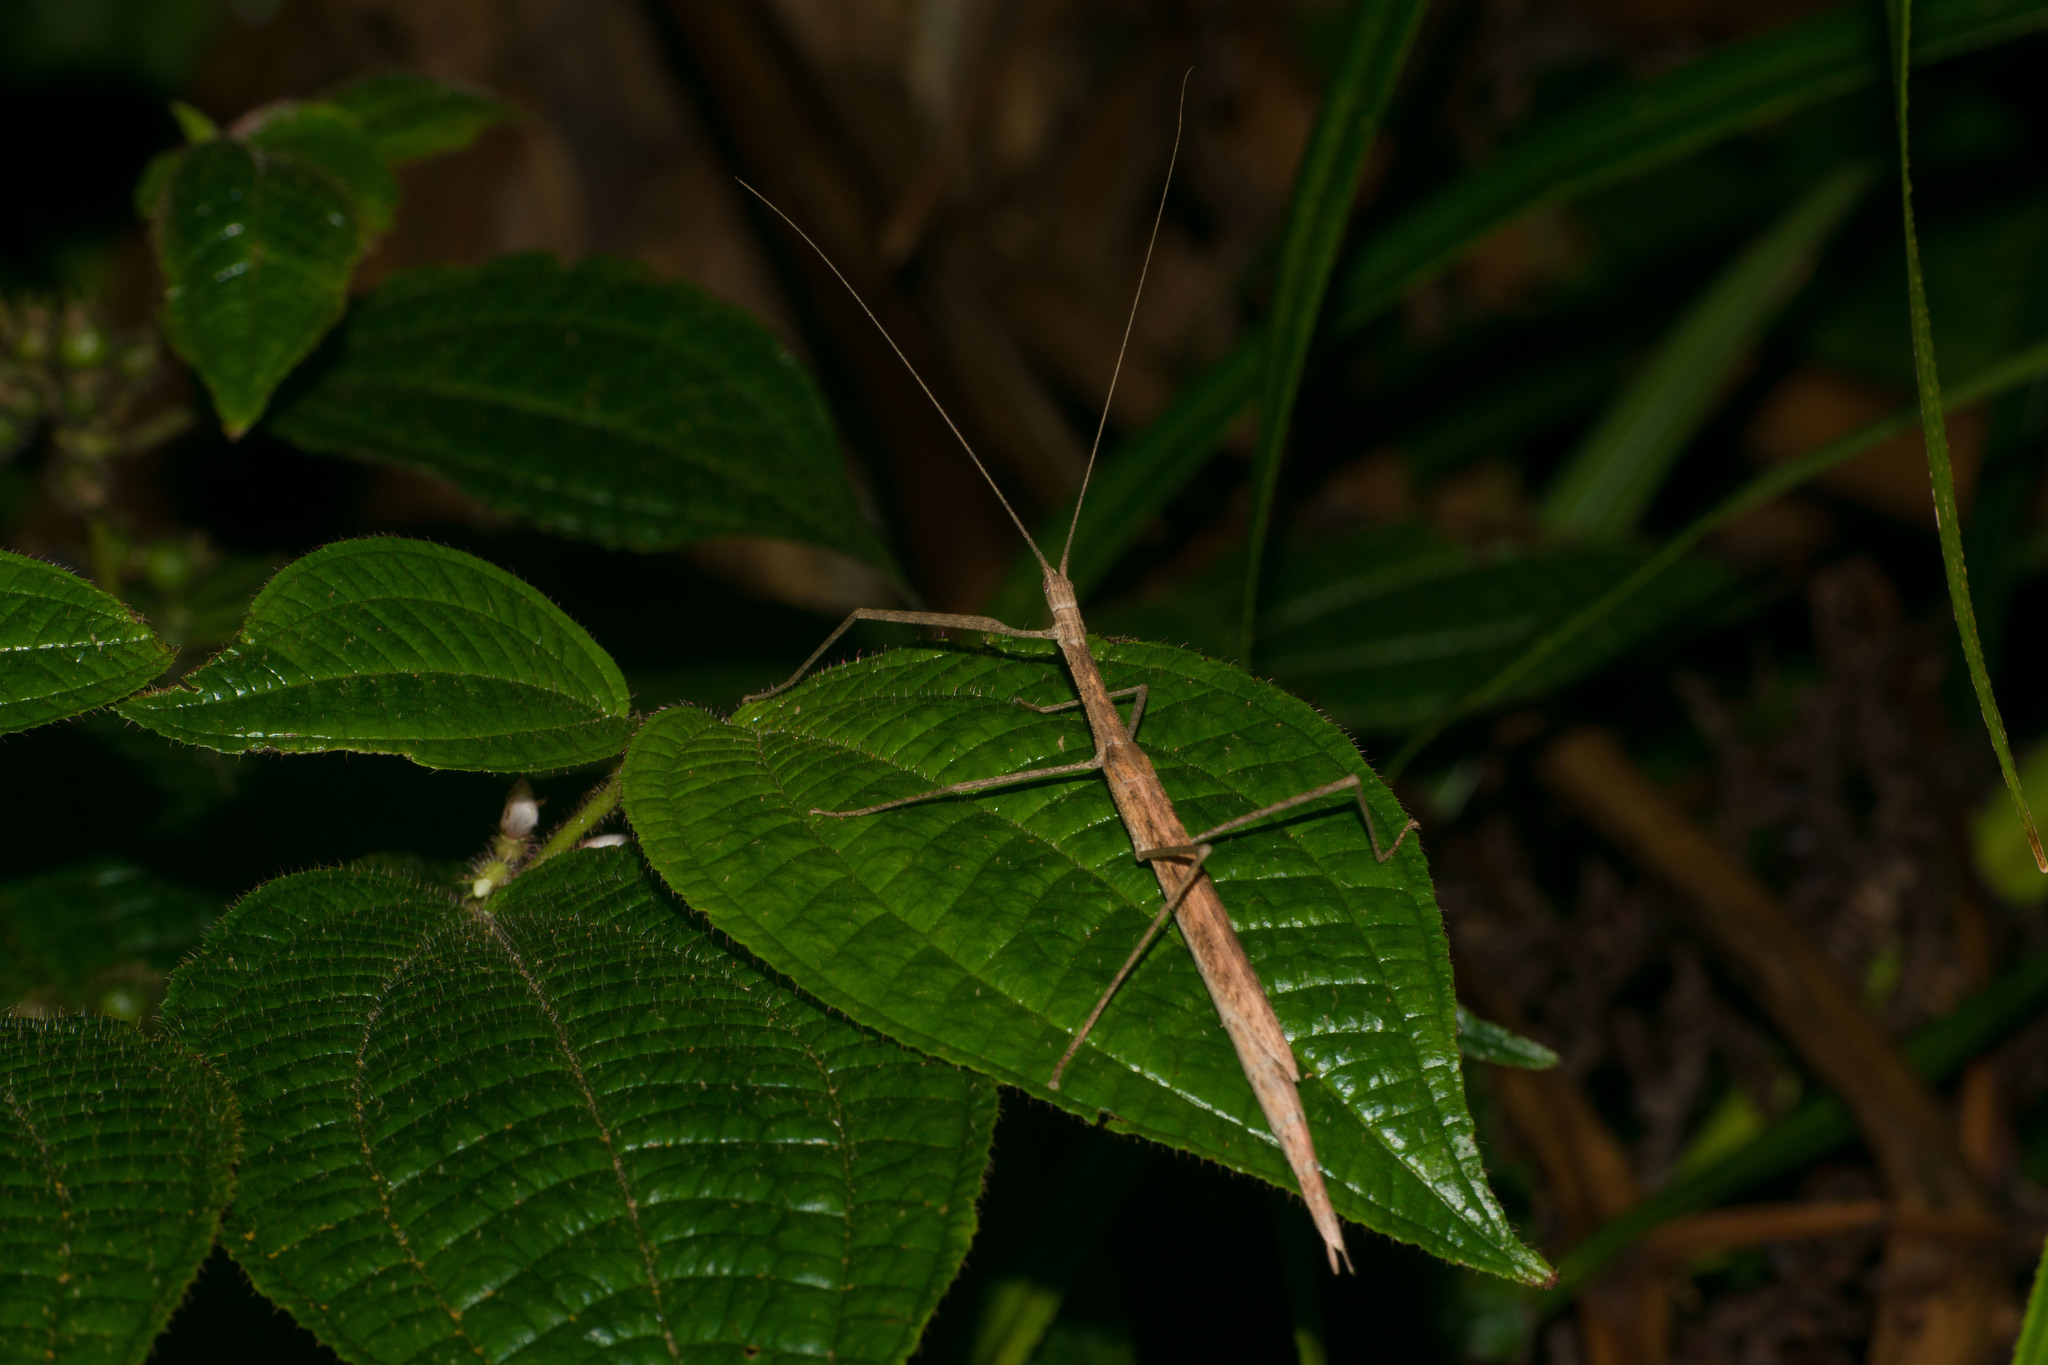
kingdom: Animalia
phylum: Arthropoda
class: Insecta
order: Phasmida
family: Lonchodidae
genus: Sipyloidea
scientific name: Sipyloidea sipylus
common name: Madagascan stick insect
